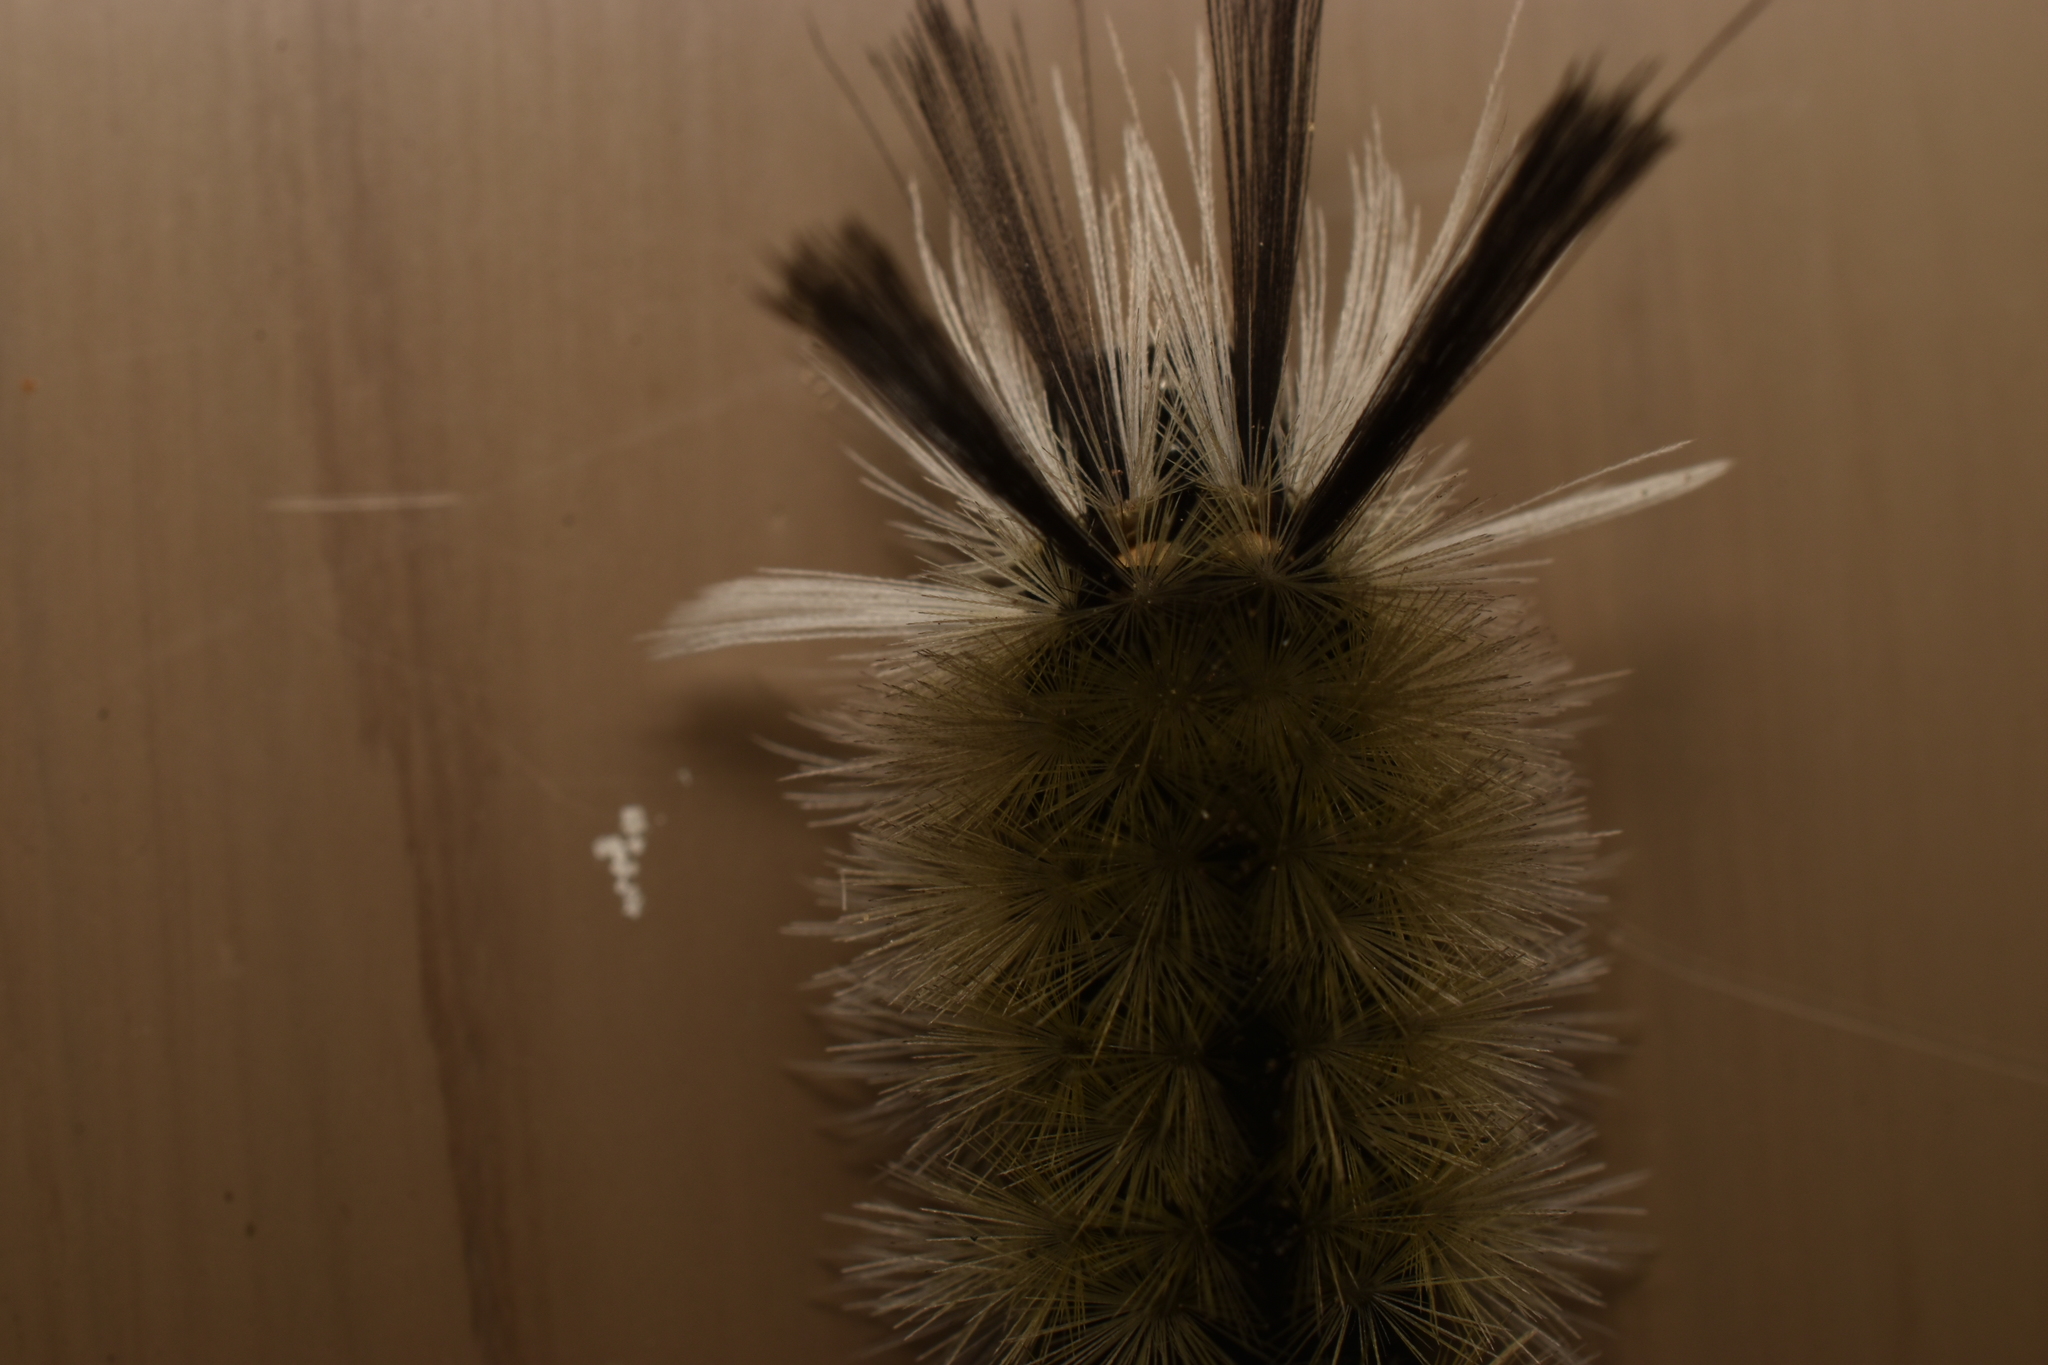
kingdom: Animalia
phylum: Arthropoda
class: Insecta
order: Lepidoptera
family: Erebidae
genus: Halysidota
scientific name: Halysidota tessellaris
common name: Banded tussock moth
